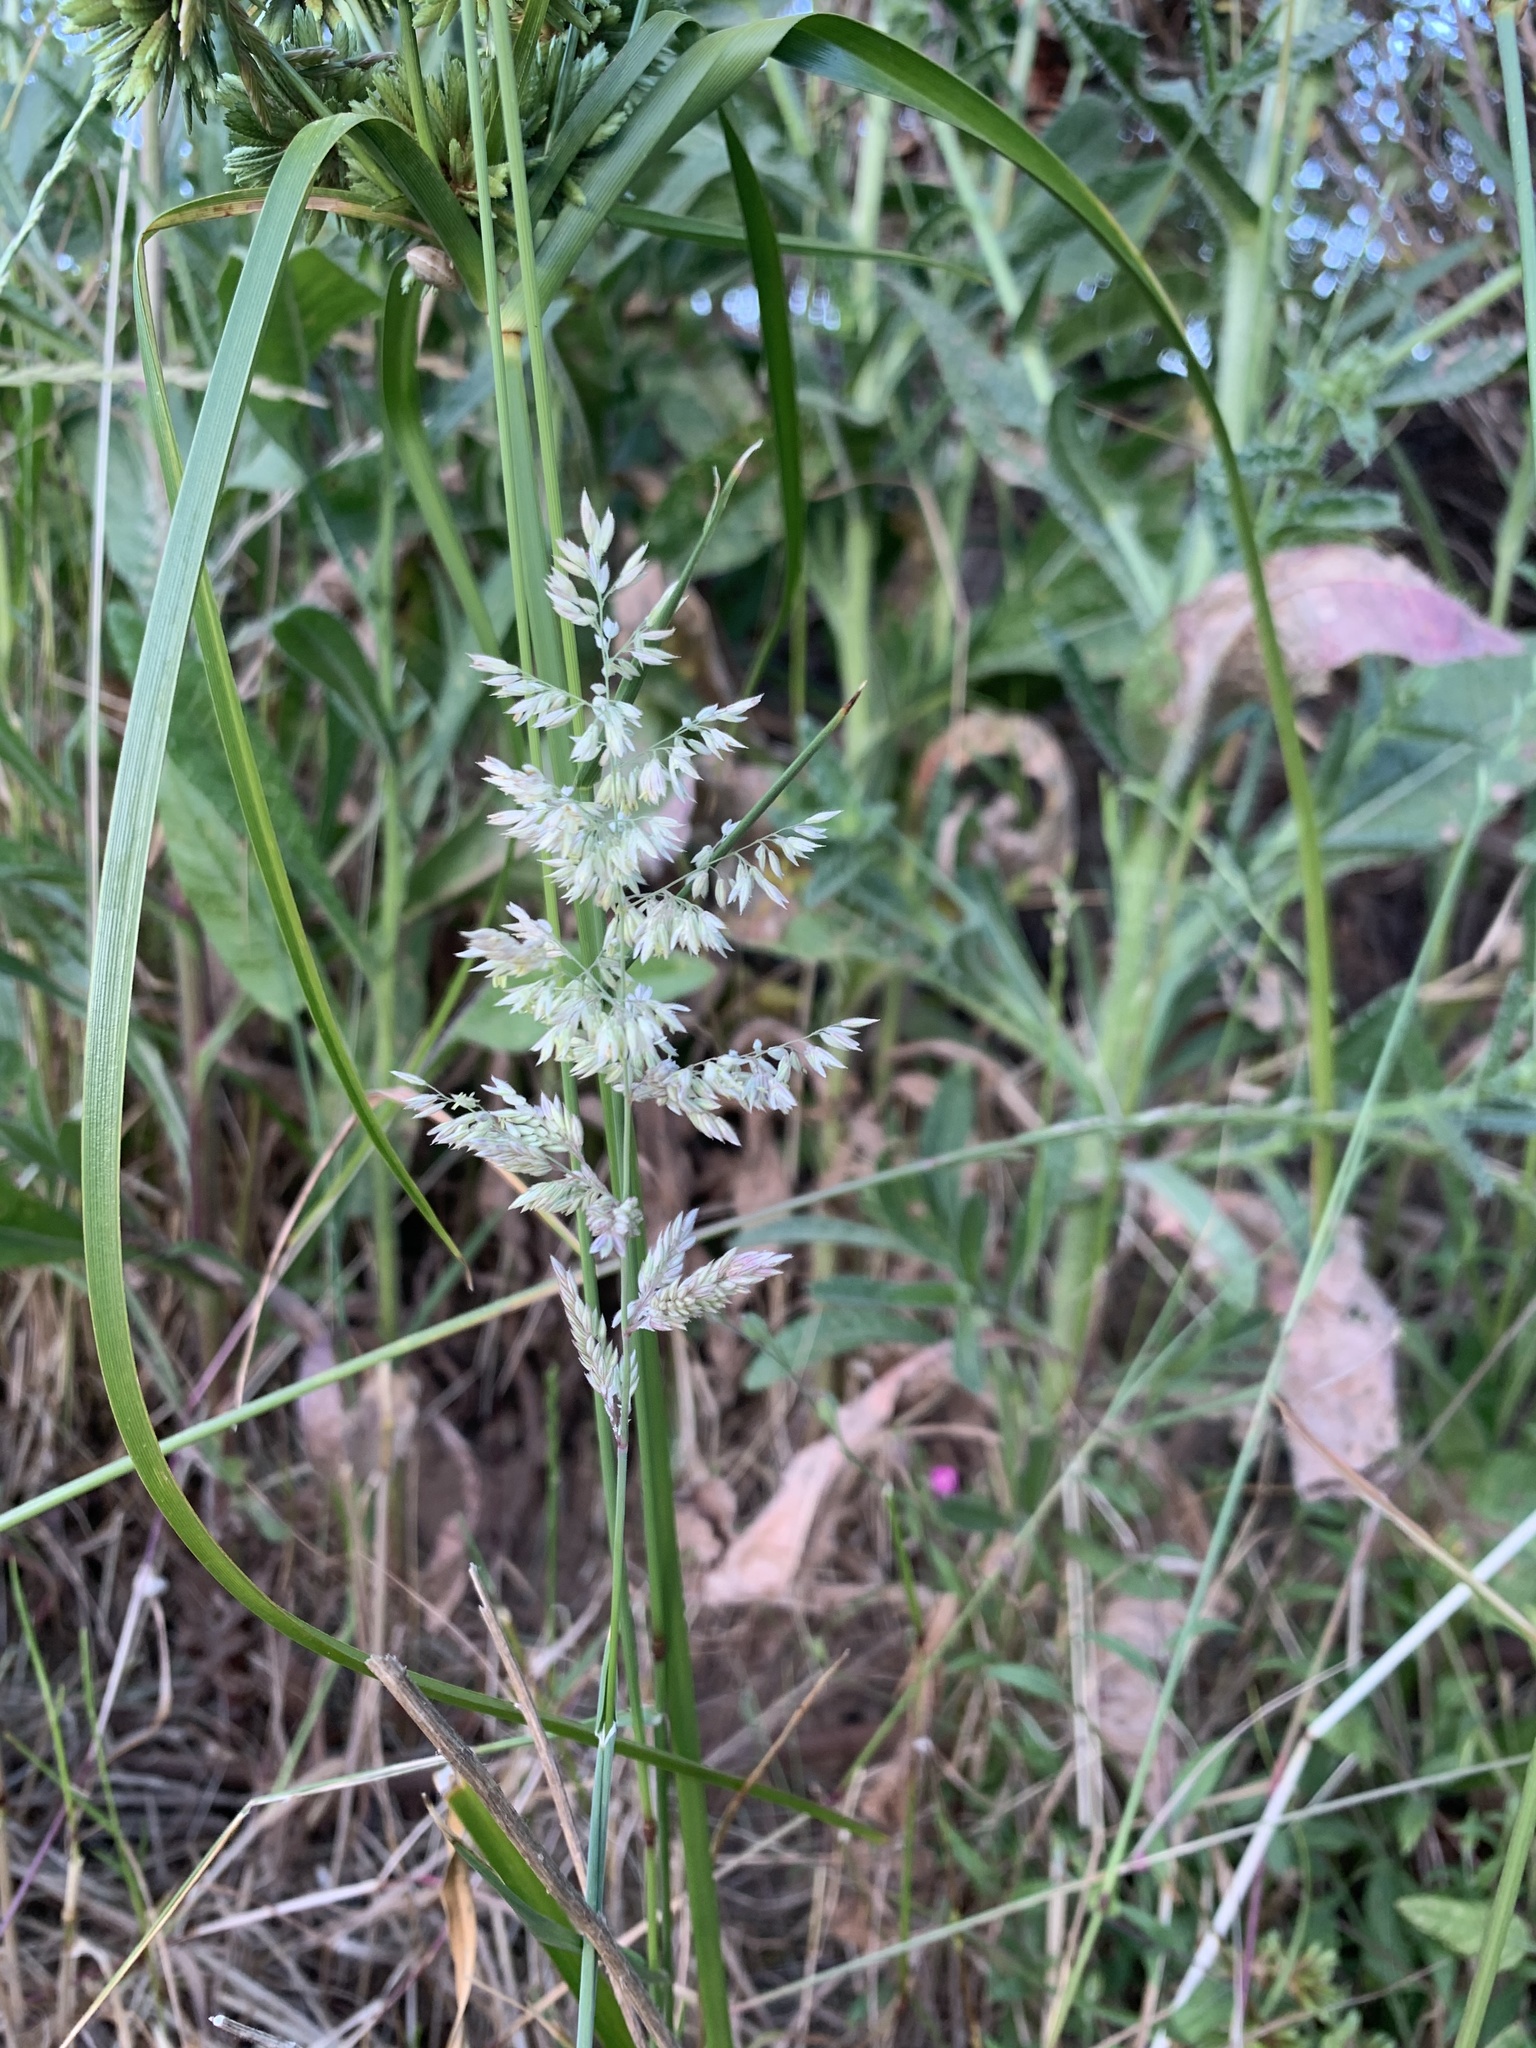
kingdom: Plantae
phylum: Tracheophyta
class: Liliopsida
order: Poales
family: Poaceae
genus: Holcus
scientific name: Holcus lanatus
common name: Yorkshire-fog
